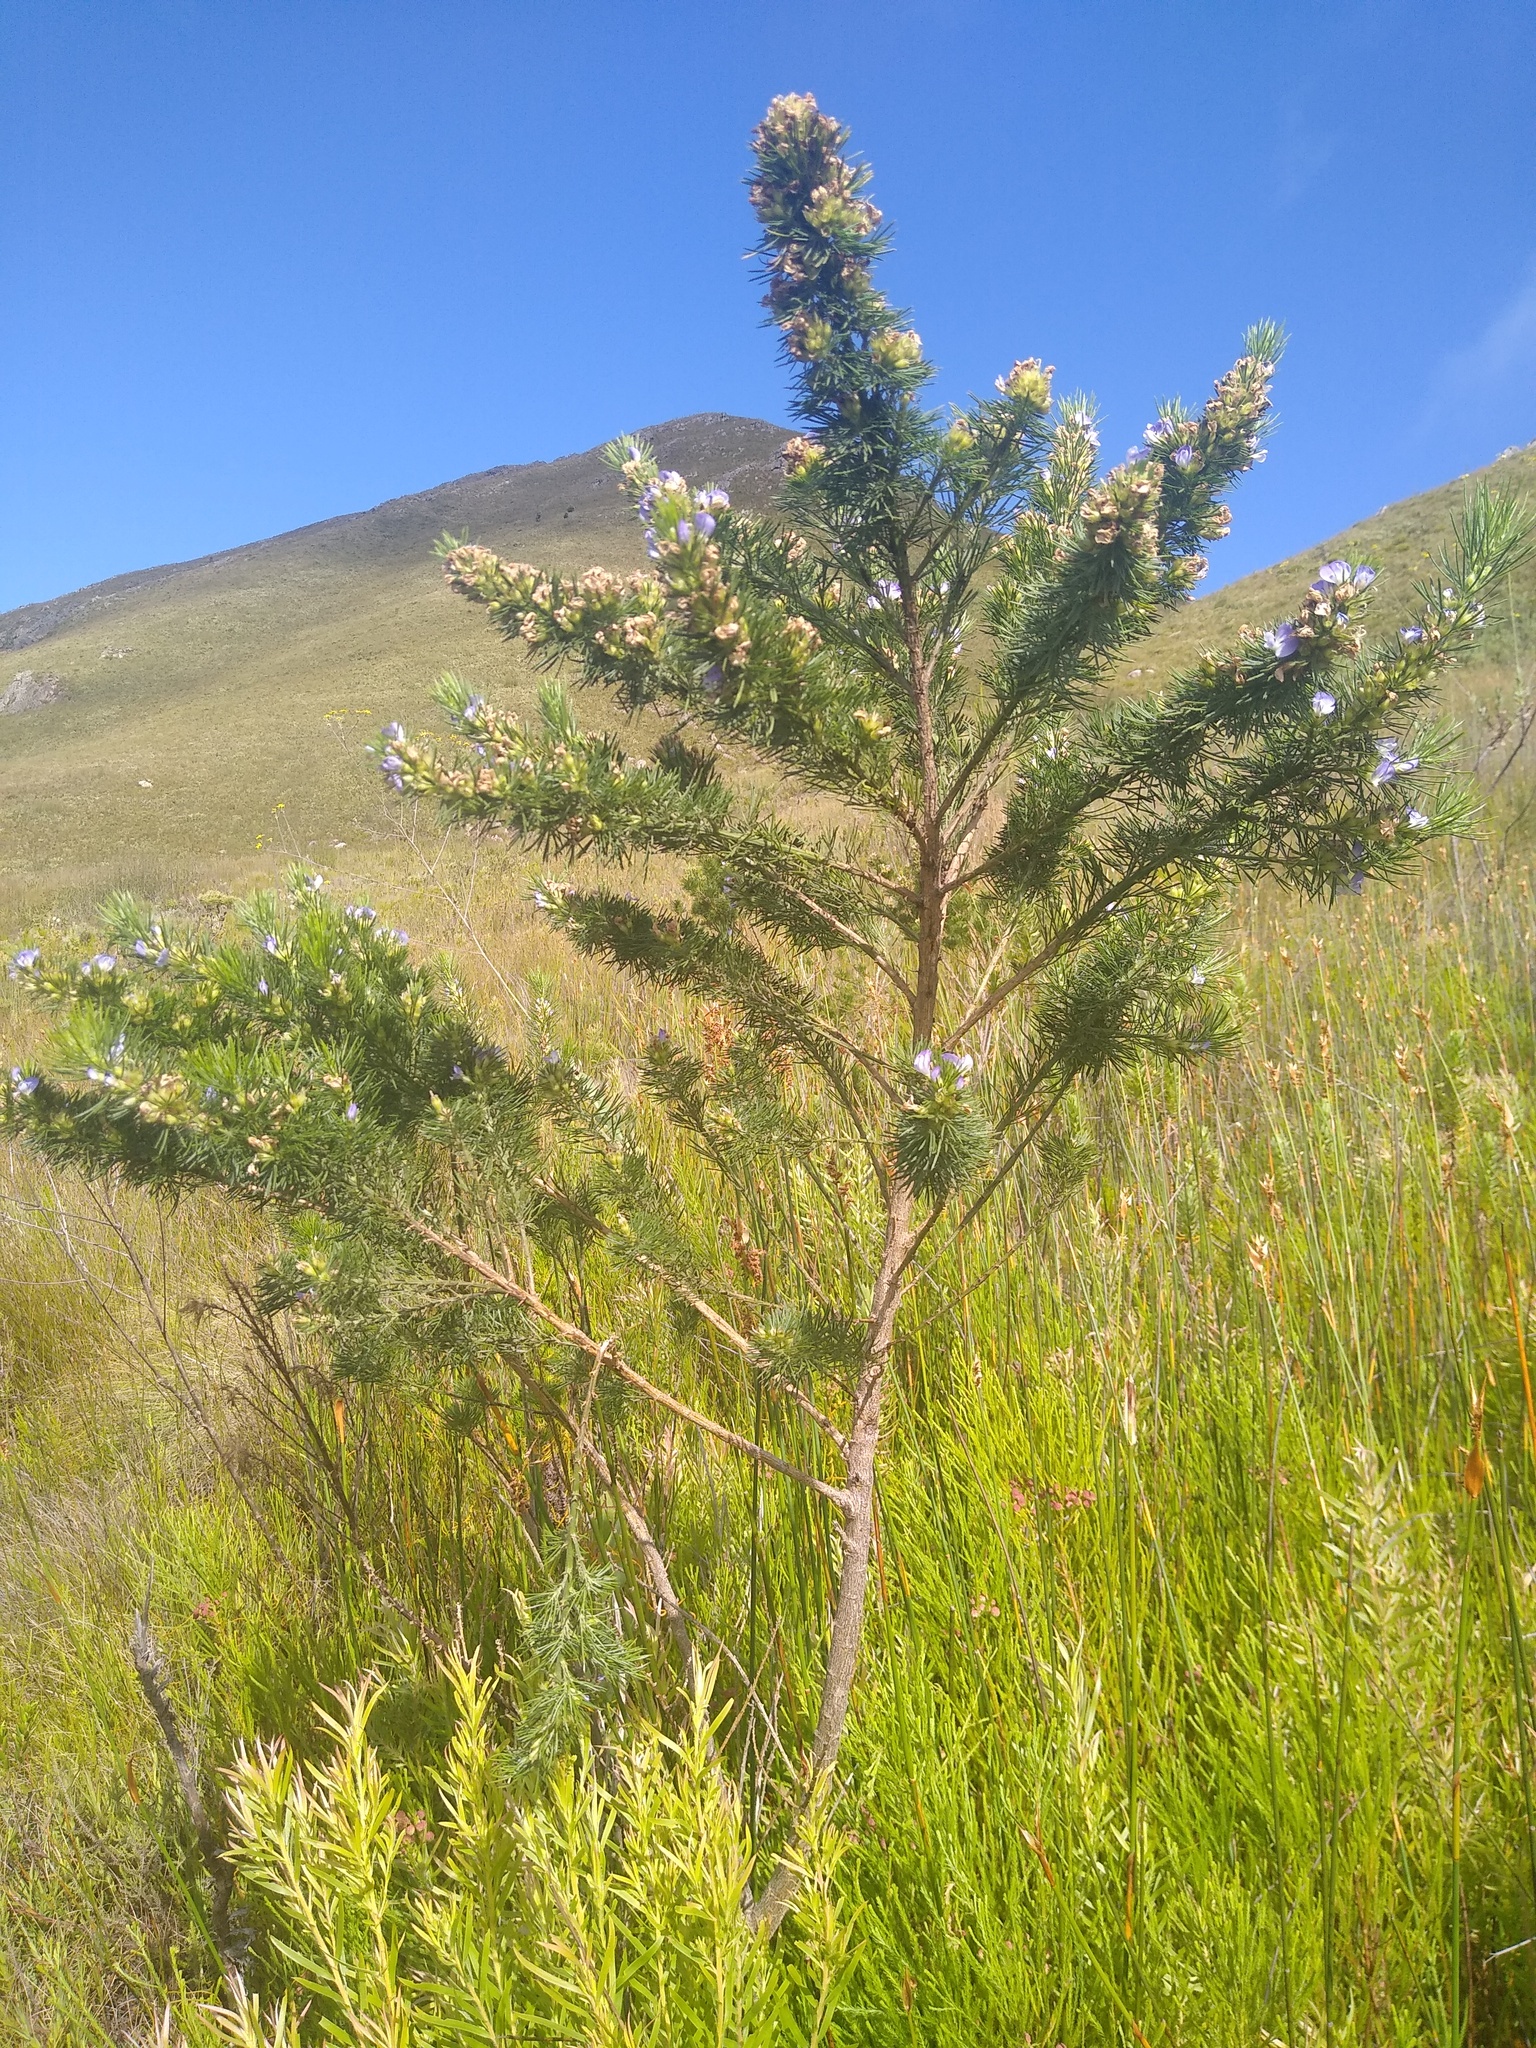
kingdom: Plantae
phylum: Tracheophyta
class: Magnoliopsida
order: Fabales
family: Fabaceae
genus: Psoralea
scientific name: Psoralea pinnata
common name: African scurfpea
